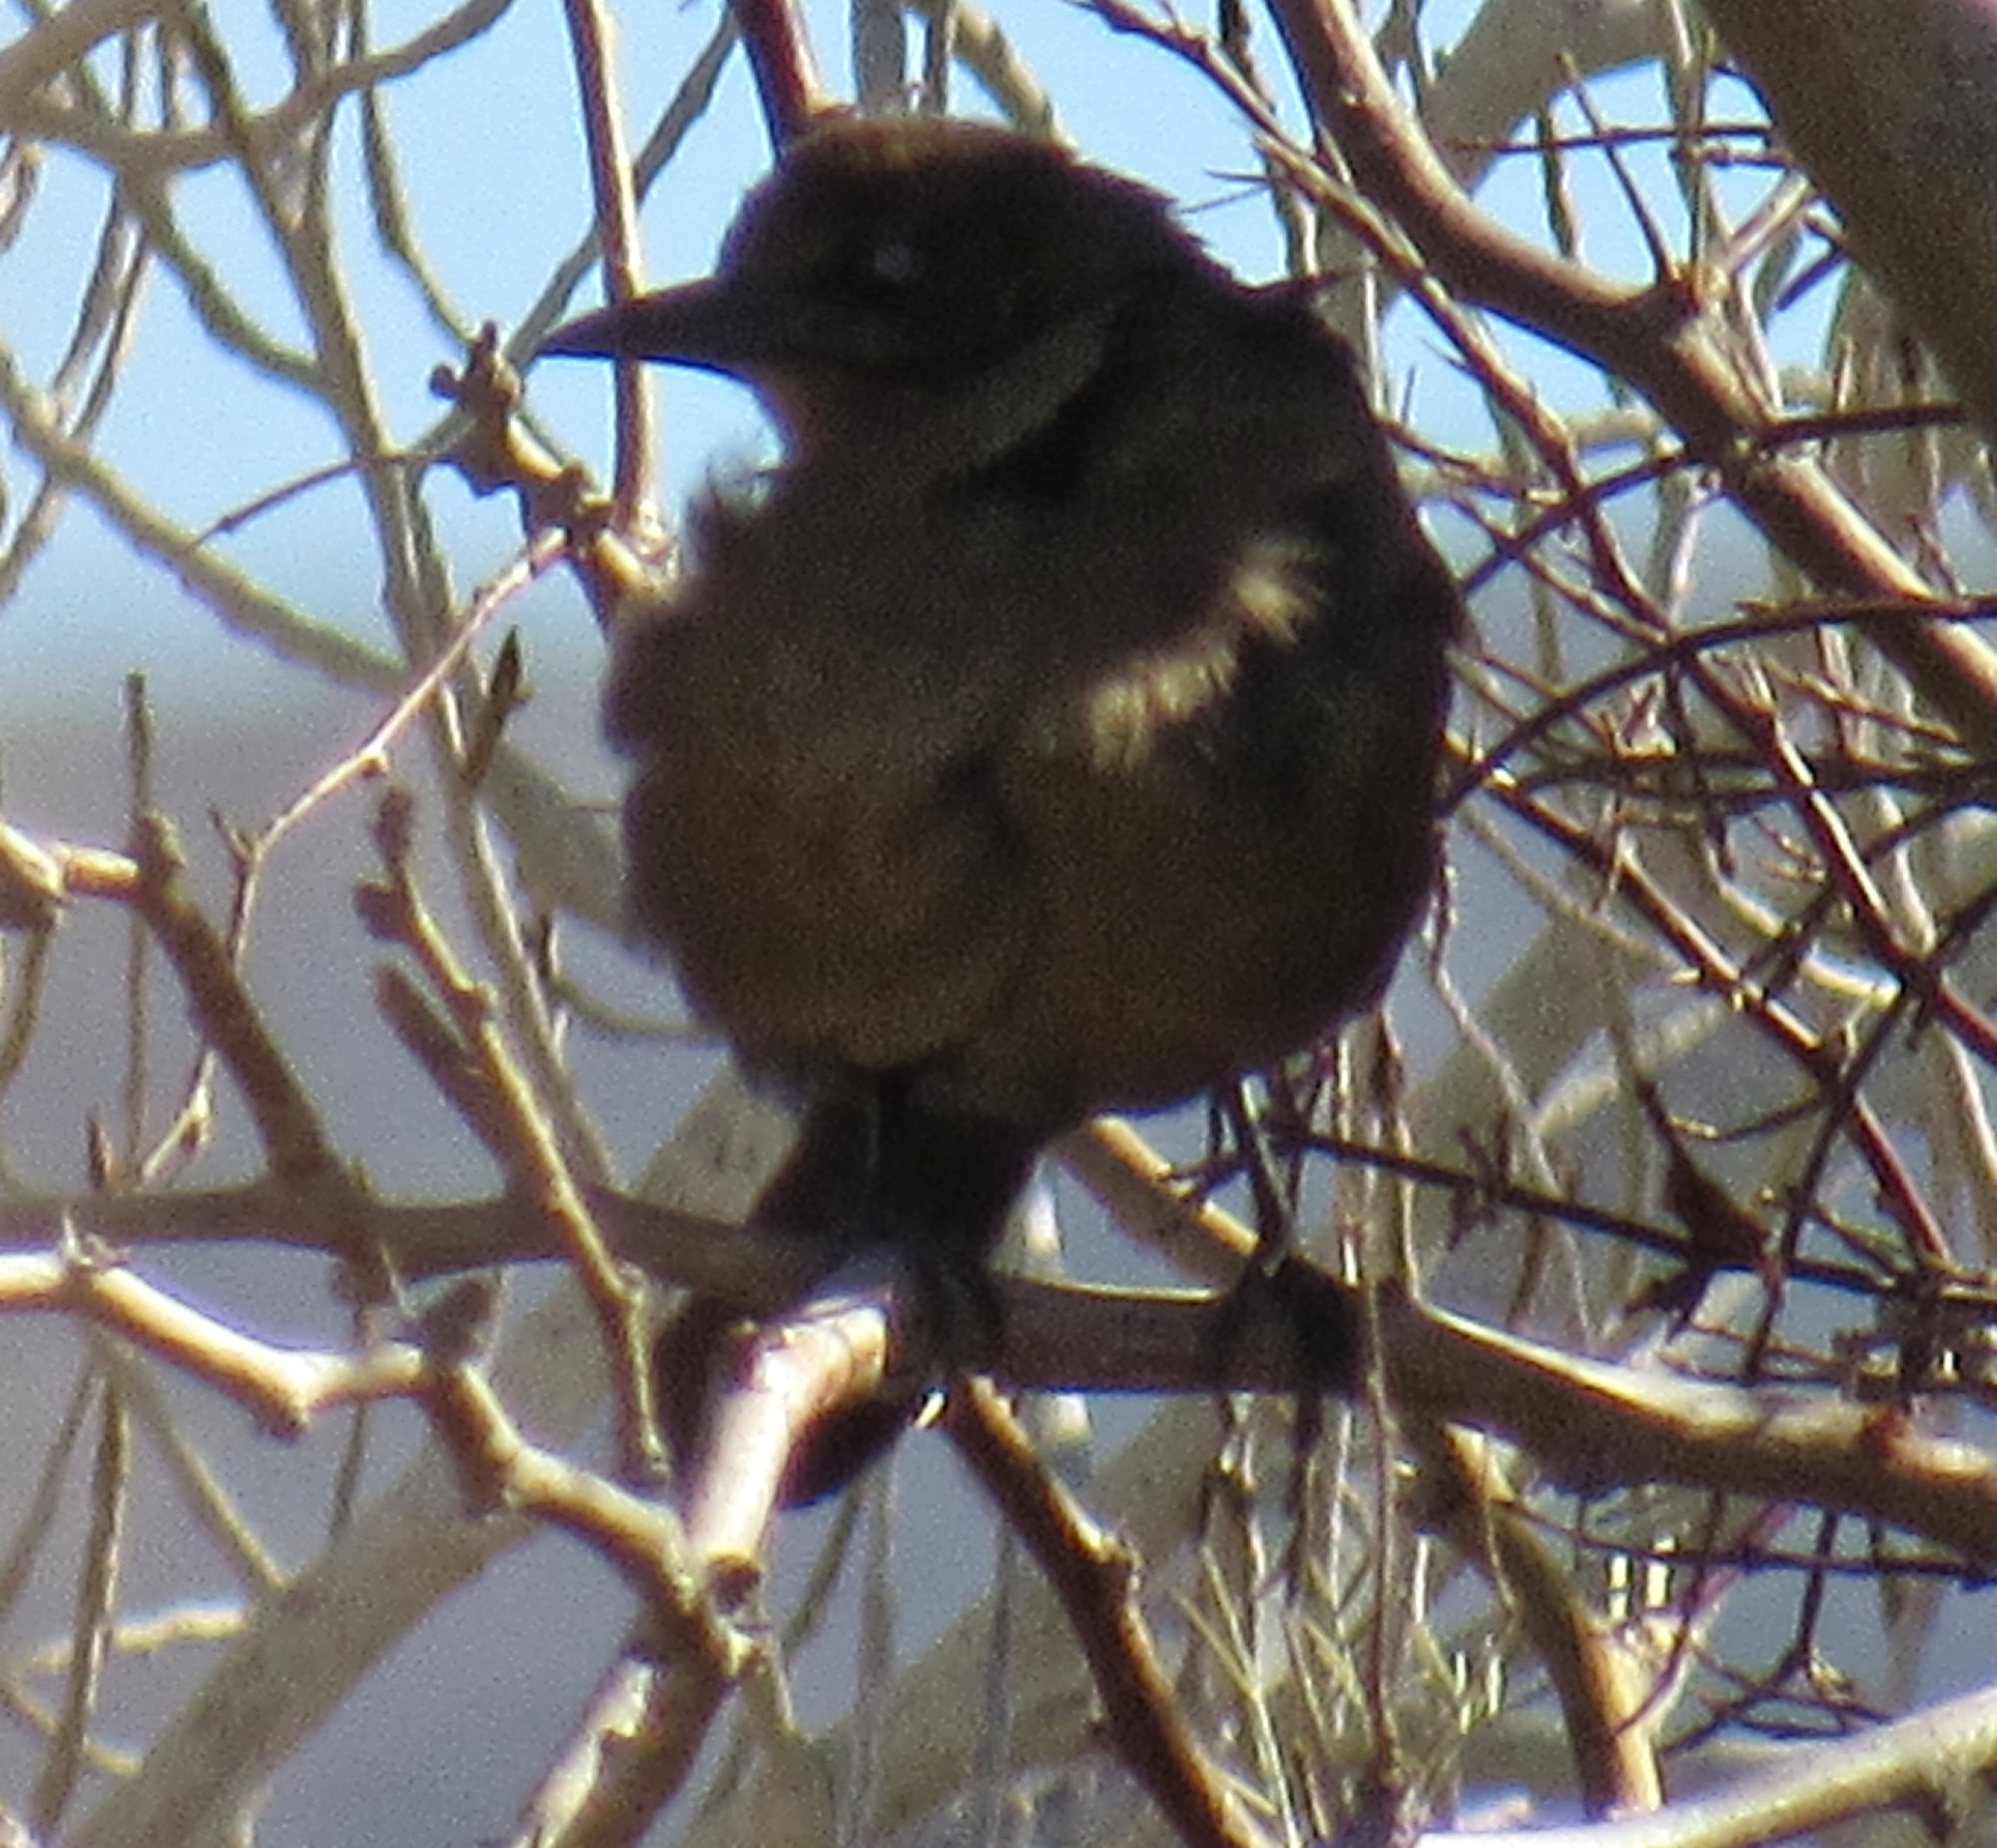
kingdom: Animalia
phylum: Chordata
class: Aves
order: Passeriformes
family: Icteridae
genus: Quiscalus
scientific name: Quiscalus mexicanus
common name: Great-tailed grackle
